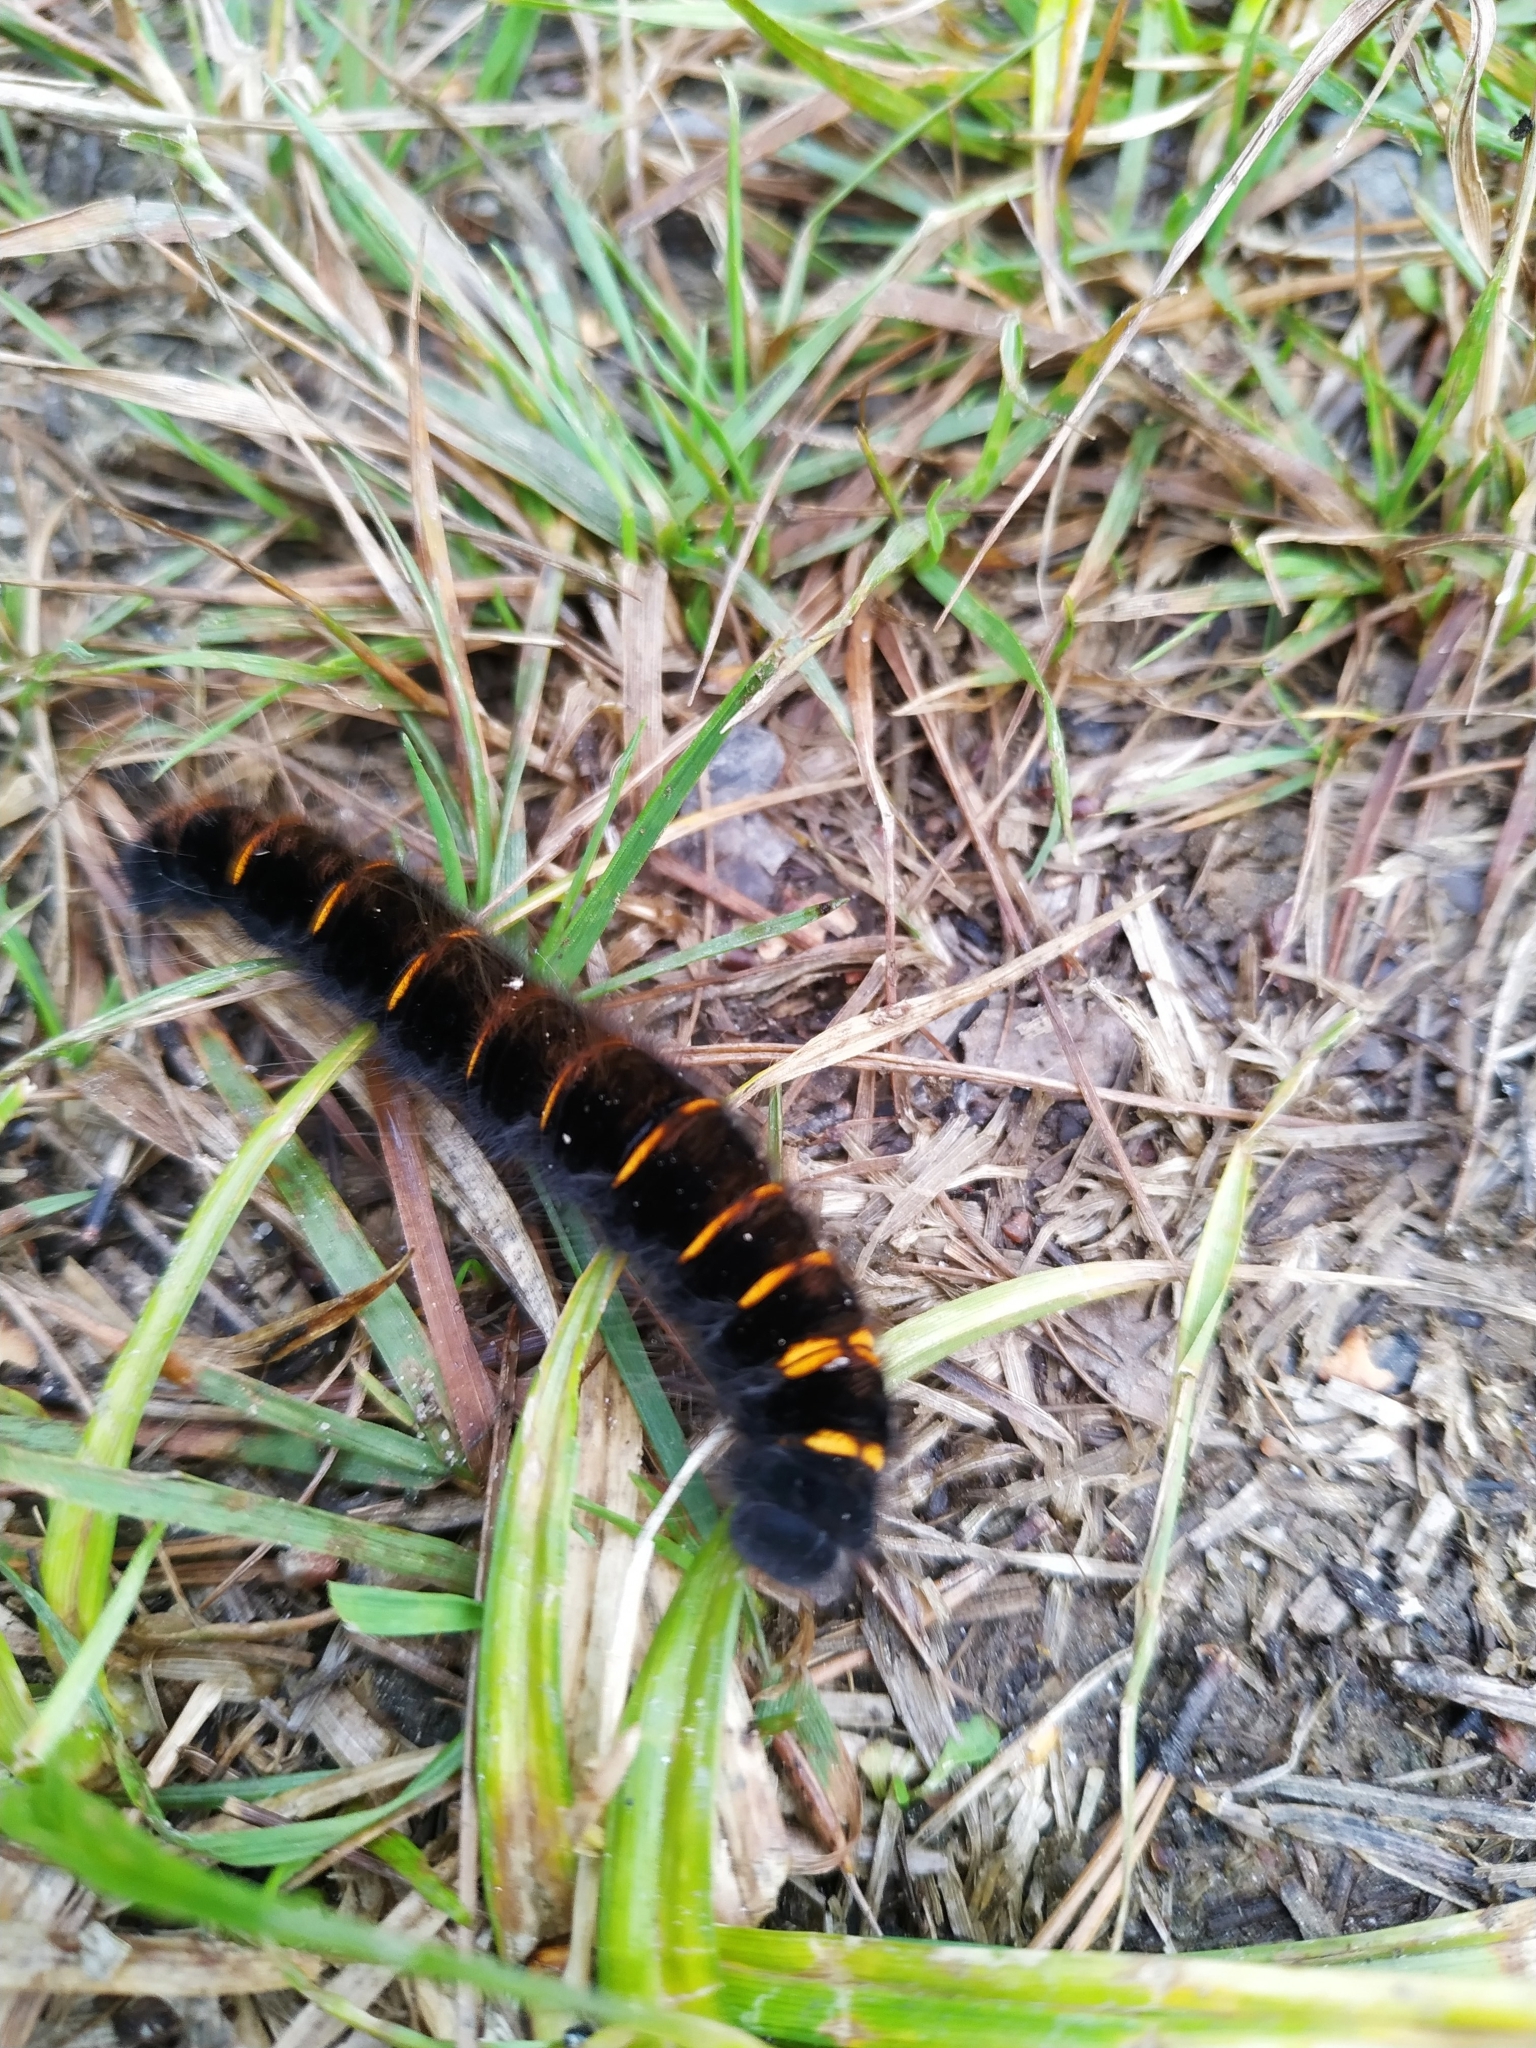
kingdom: Animalia
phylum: Arthropoda
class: Insecta
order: Lepidoptera
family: Lasiocampidae
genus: Macrothylacia
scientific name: Macrothylacia rubi
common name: Fox moth
